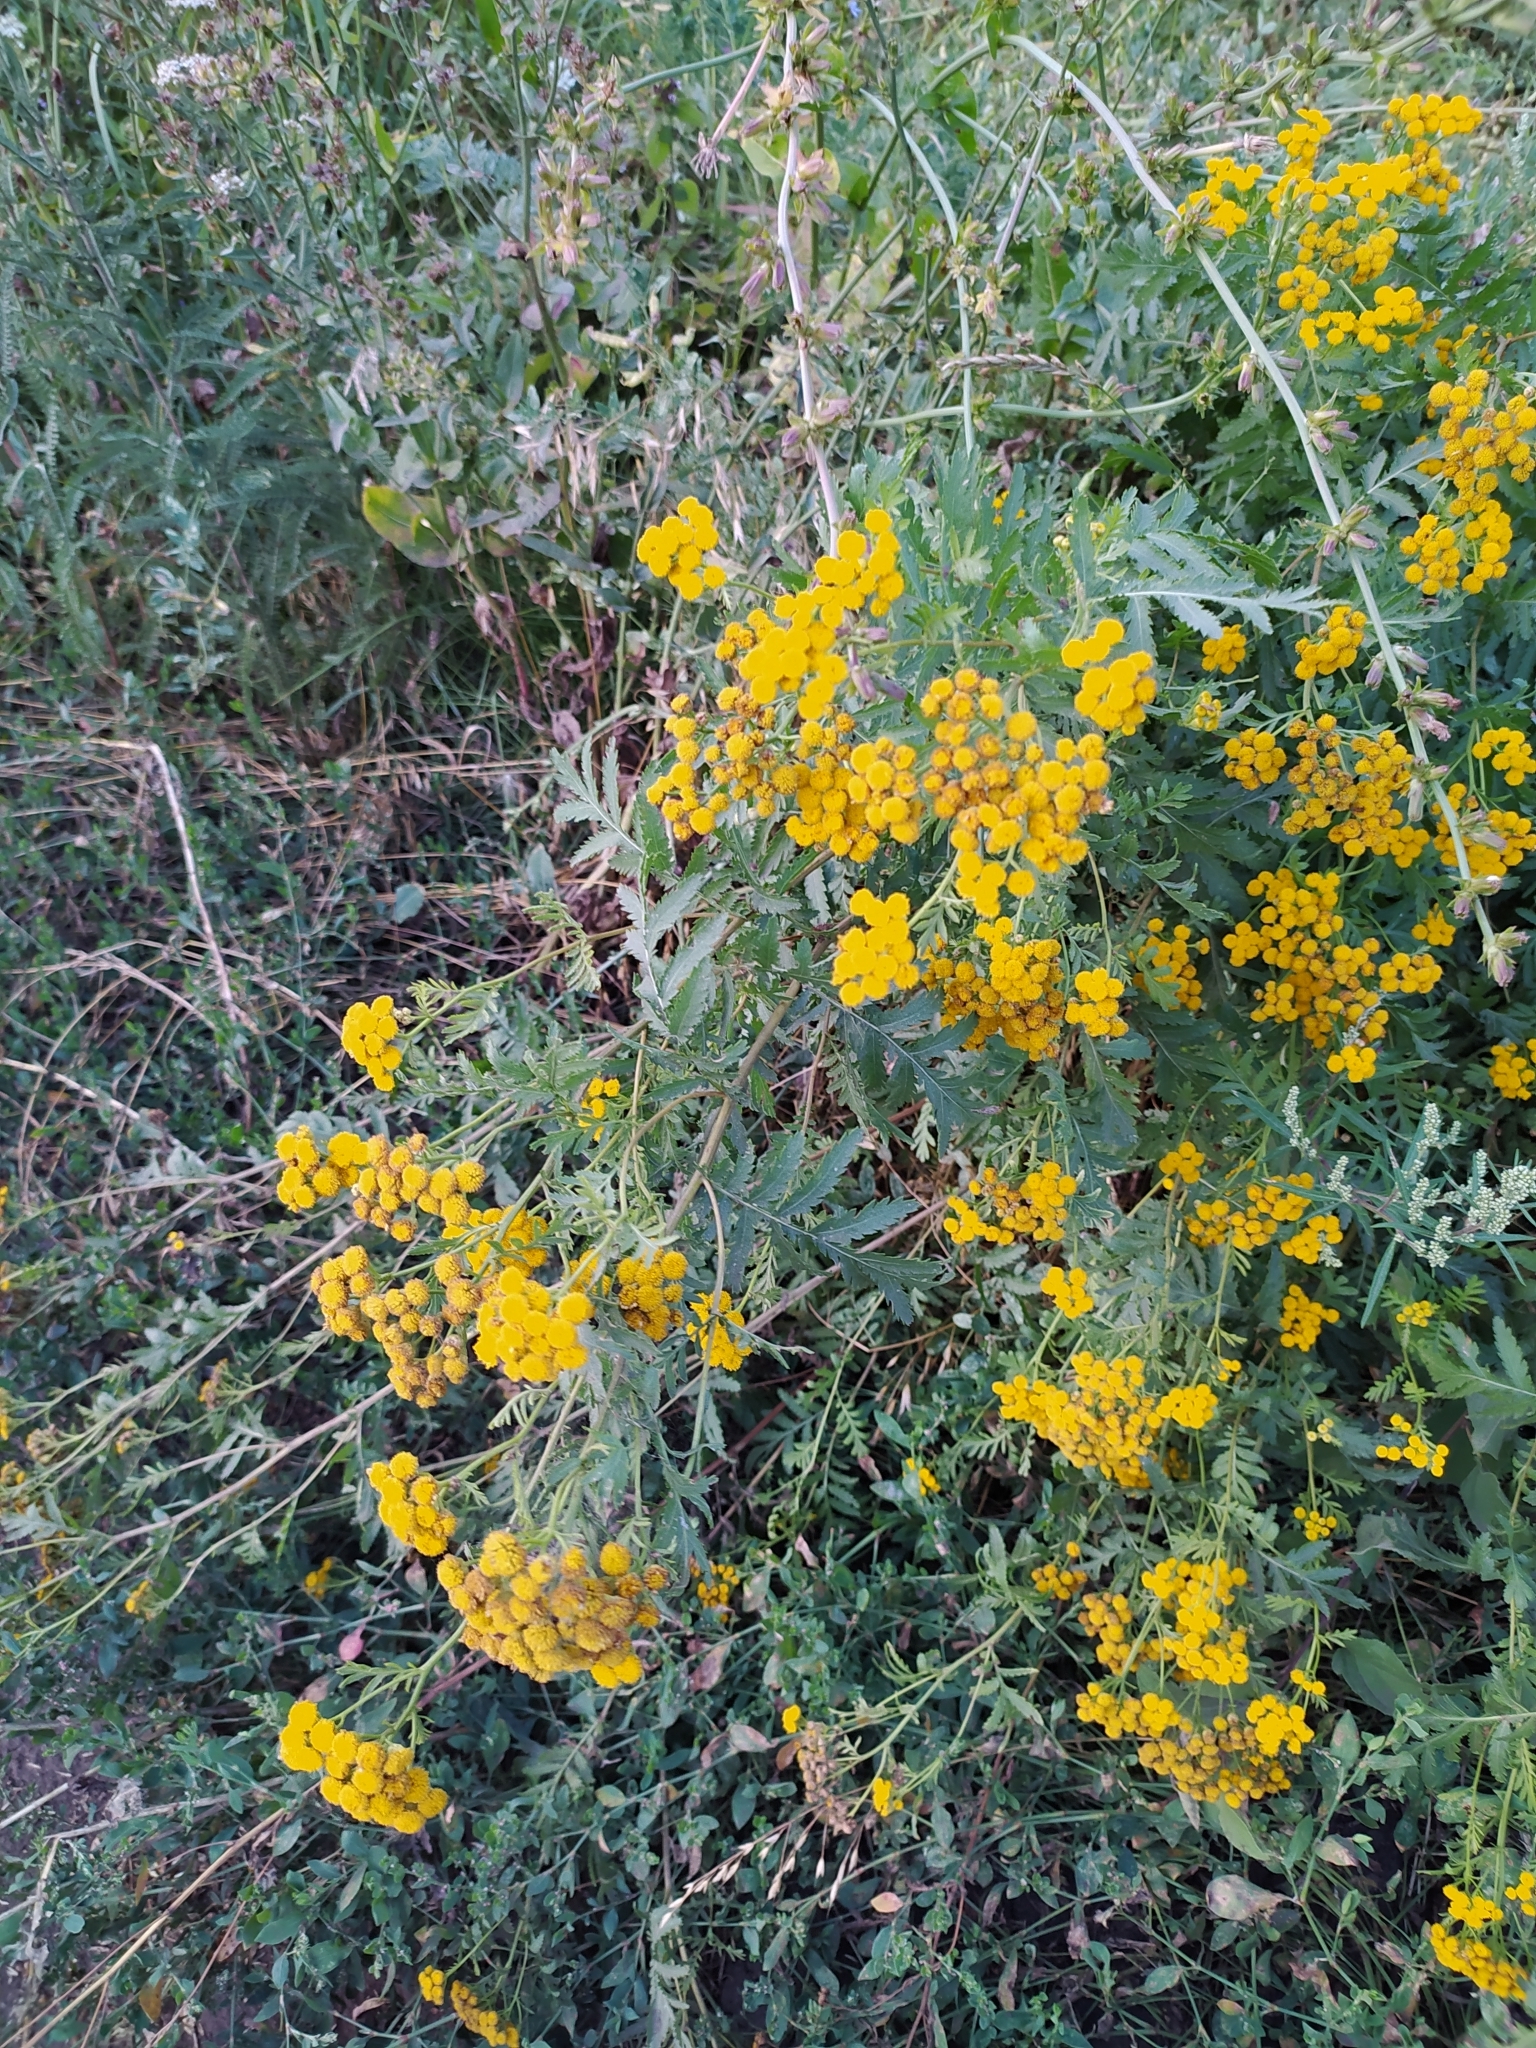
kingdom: Plantae
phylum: Tracheophyta
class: Magnoliopsida
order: Asterales
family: Asteraceae
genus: Tanacetum
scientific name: Tanacetum vulgare
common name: Common tansy
